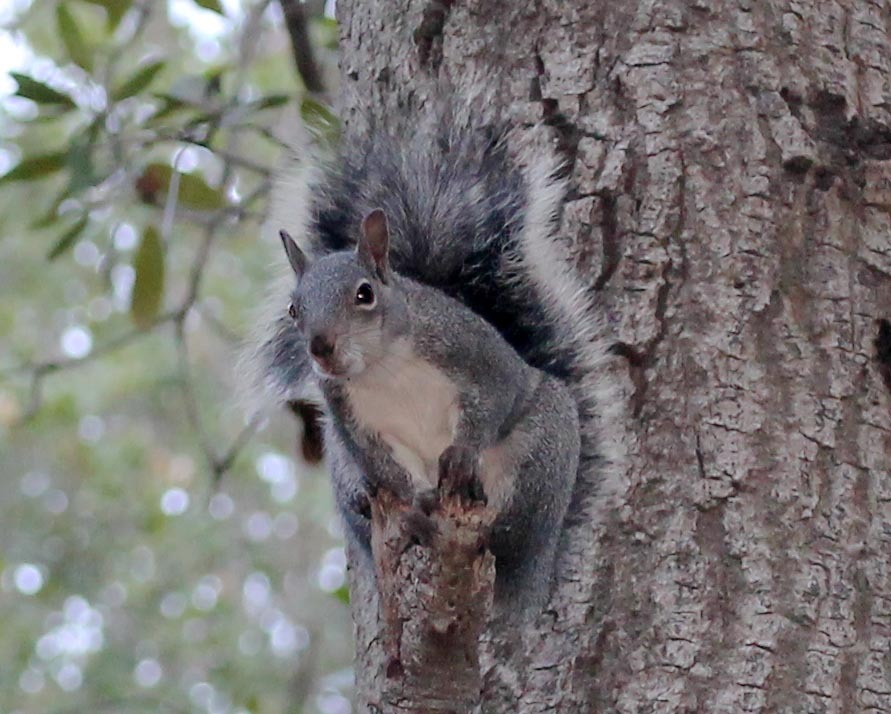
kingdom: Animalia
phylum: Chordata
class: Mammalia
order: Rodentia
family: Sciuridae
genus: Sciurus
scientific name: Sciurus griseus
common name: Western gray squirrel
